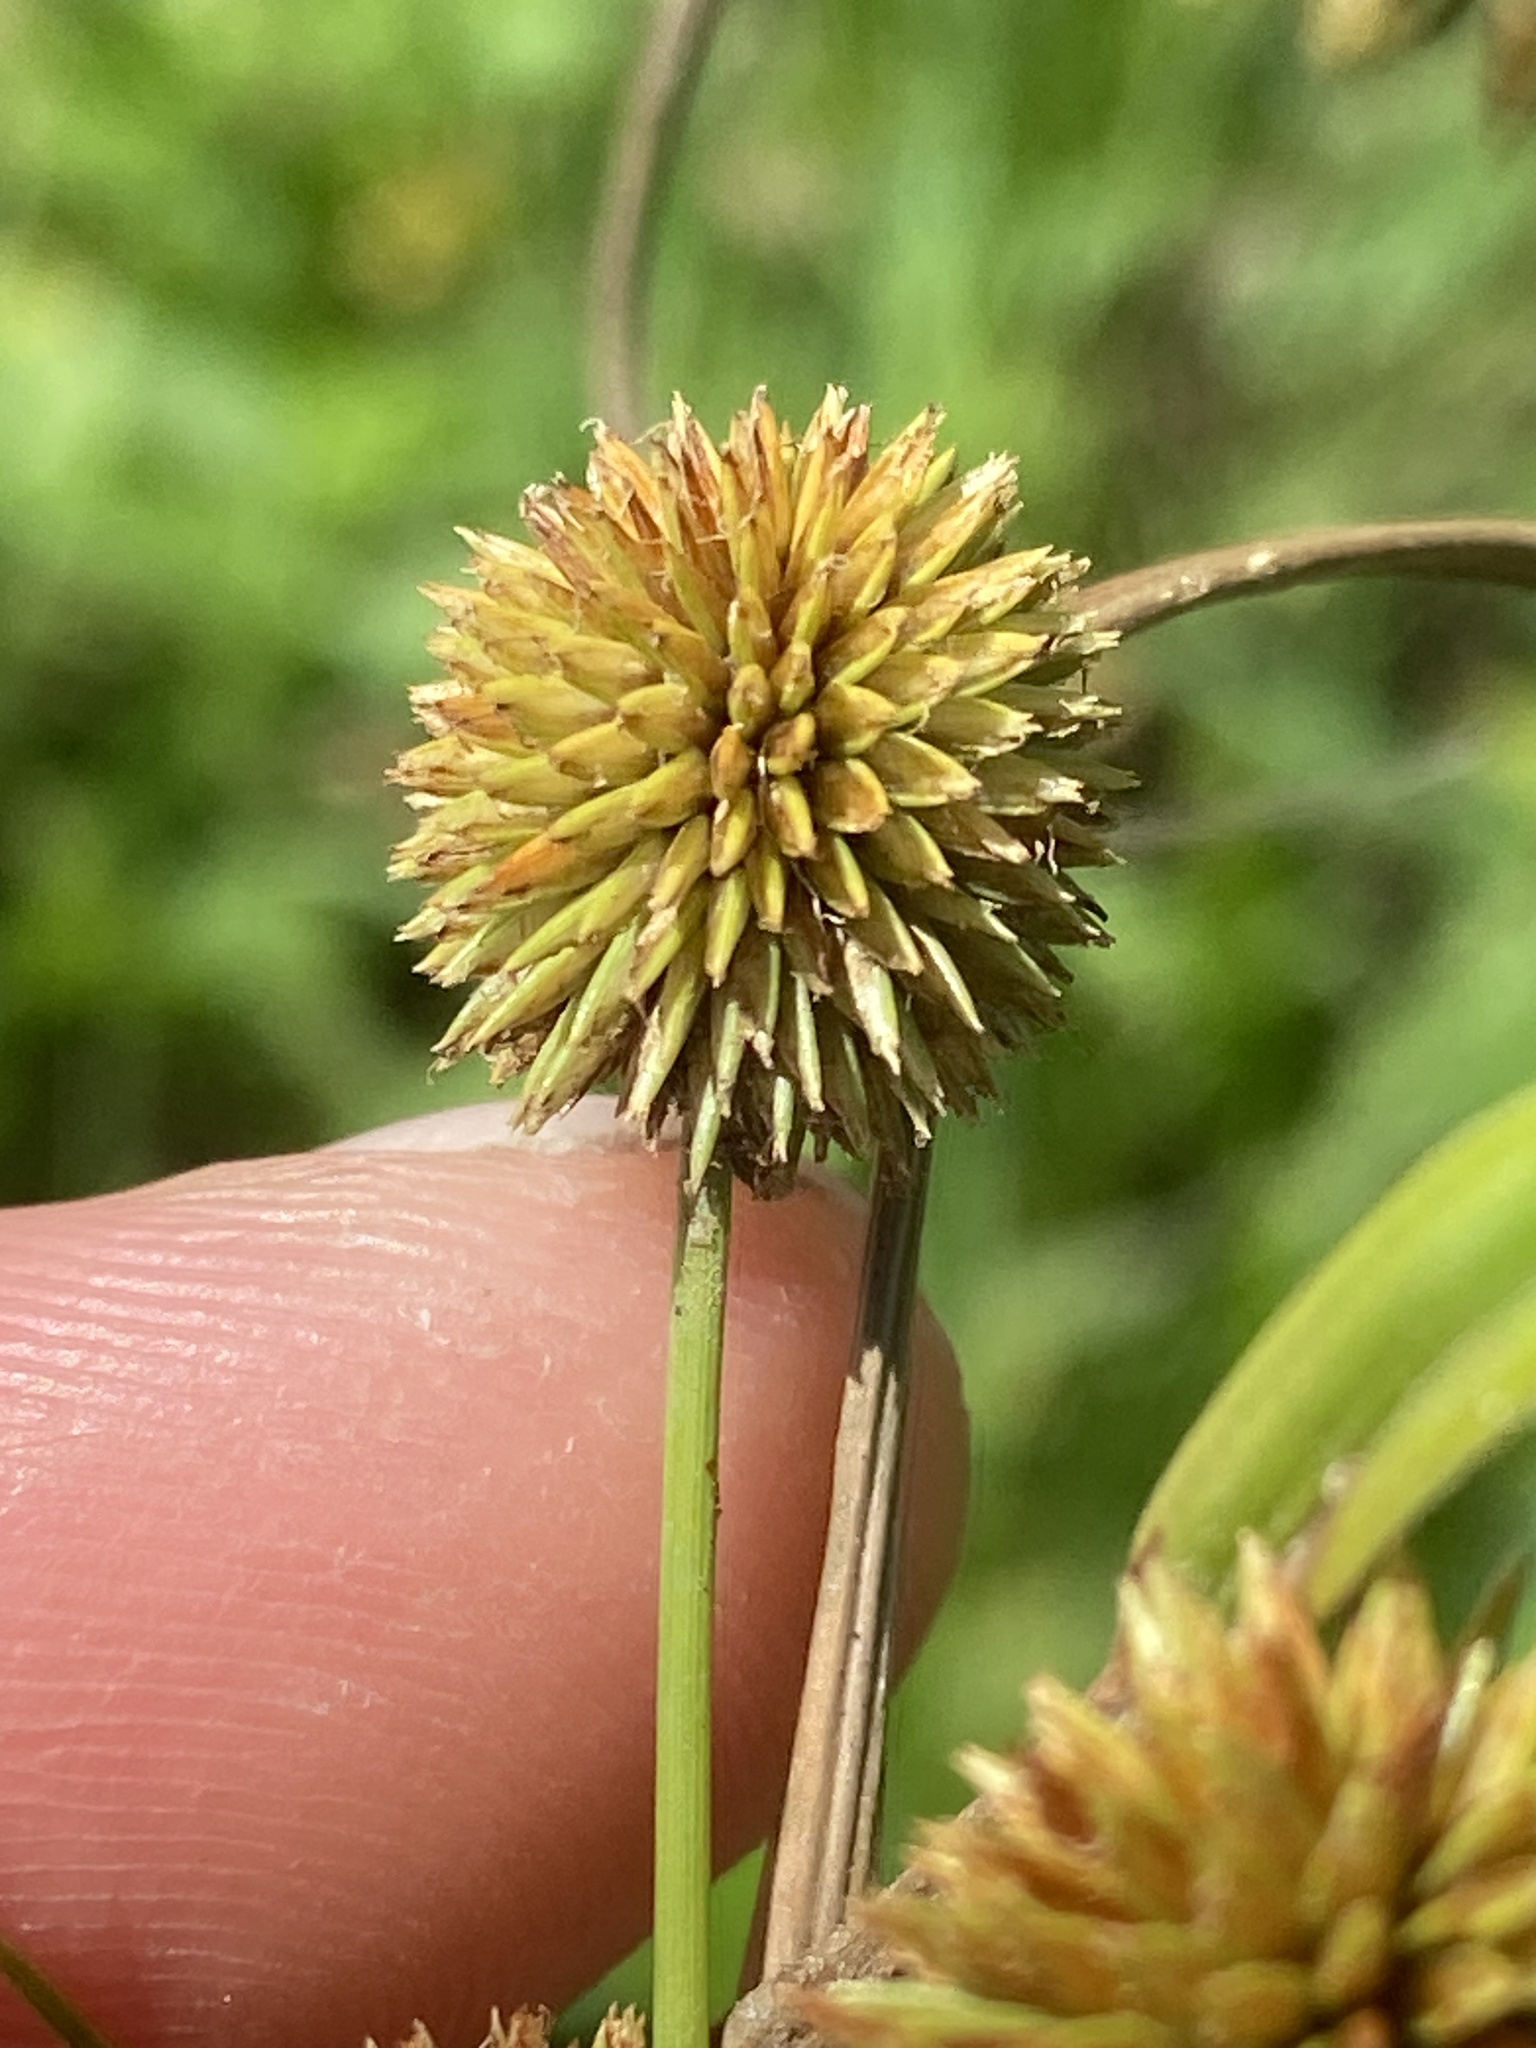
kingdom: Plantae
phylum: Tracheophyta
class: Liliopsida
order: Poales
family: Cyperaceae
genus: Cyperus
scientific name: Cyperus echinatus
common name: Teasel sedge
